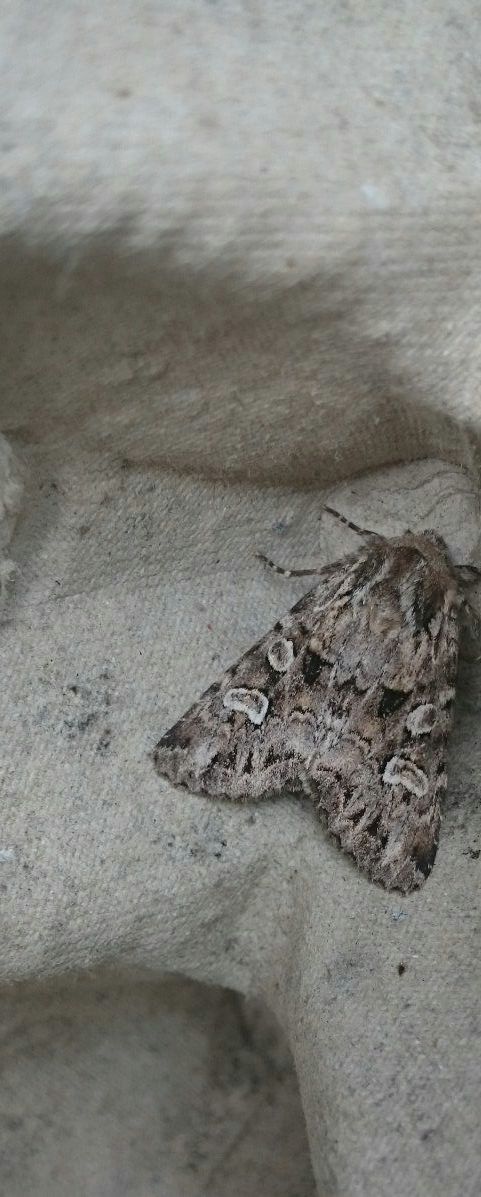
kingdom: Animalia
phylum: Arthropoda
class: Insecta
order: Lepidoptera
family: Noctuidae
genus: Pachetra
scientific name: Pachetra sagittigera
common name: Feathered ear
